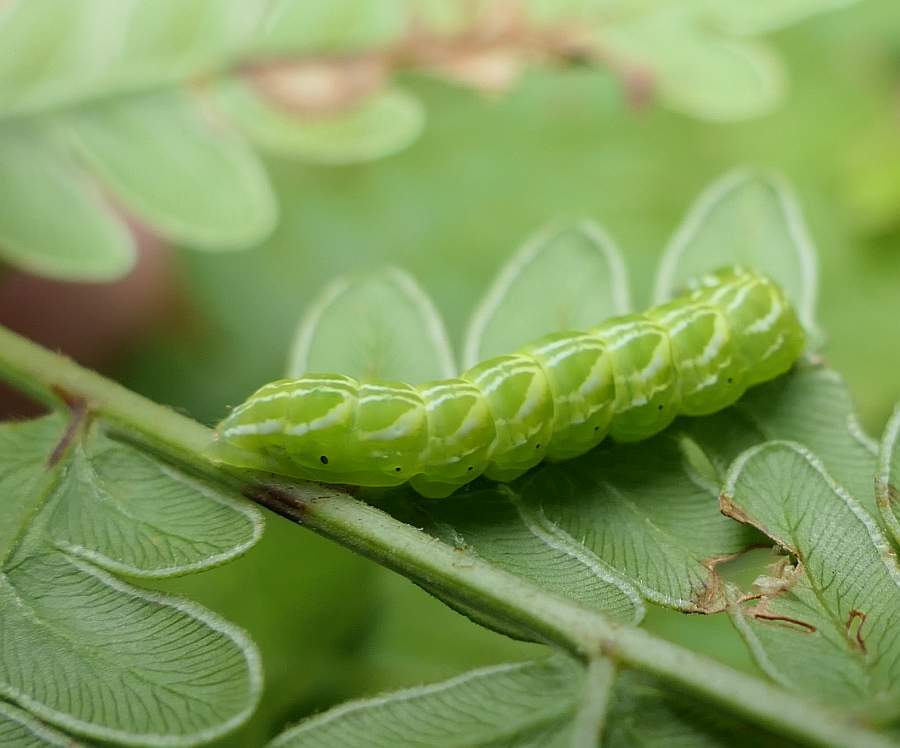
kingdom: Animalia
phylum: Arthropoda
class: Insecta
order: Lepidoptera
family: Noctuidae
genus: Callopistria
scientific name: Callopistria cordata
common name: Silver-spotted fern moth
